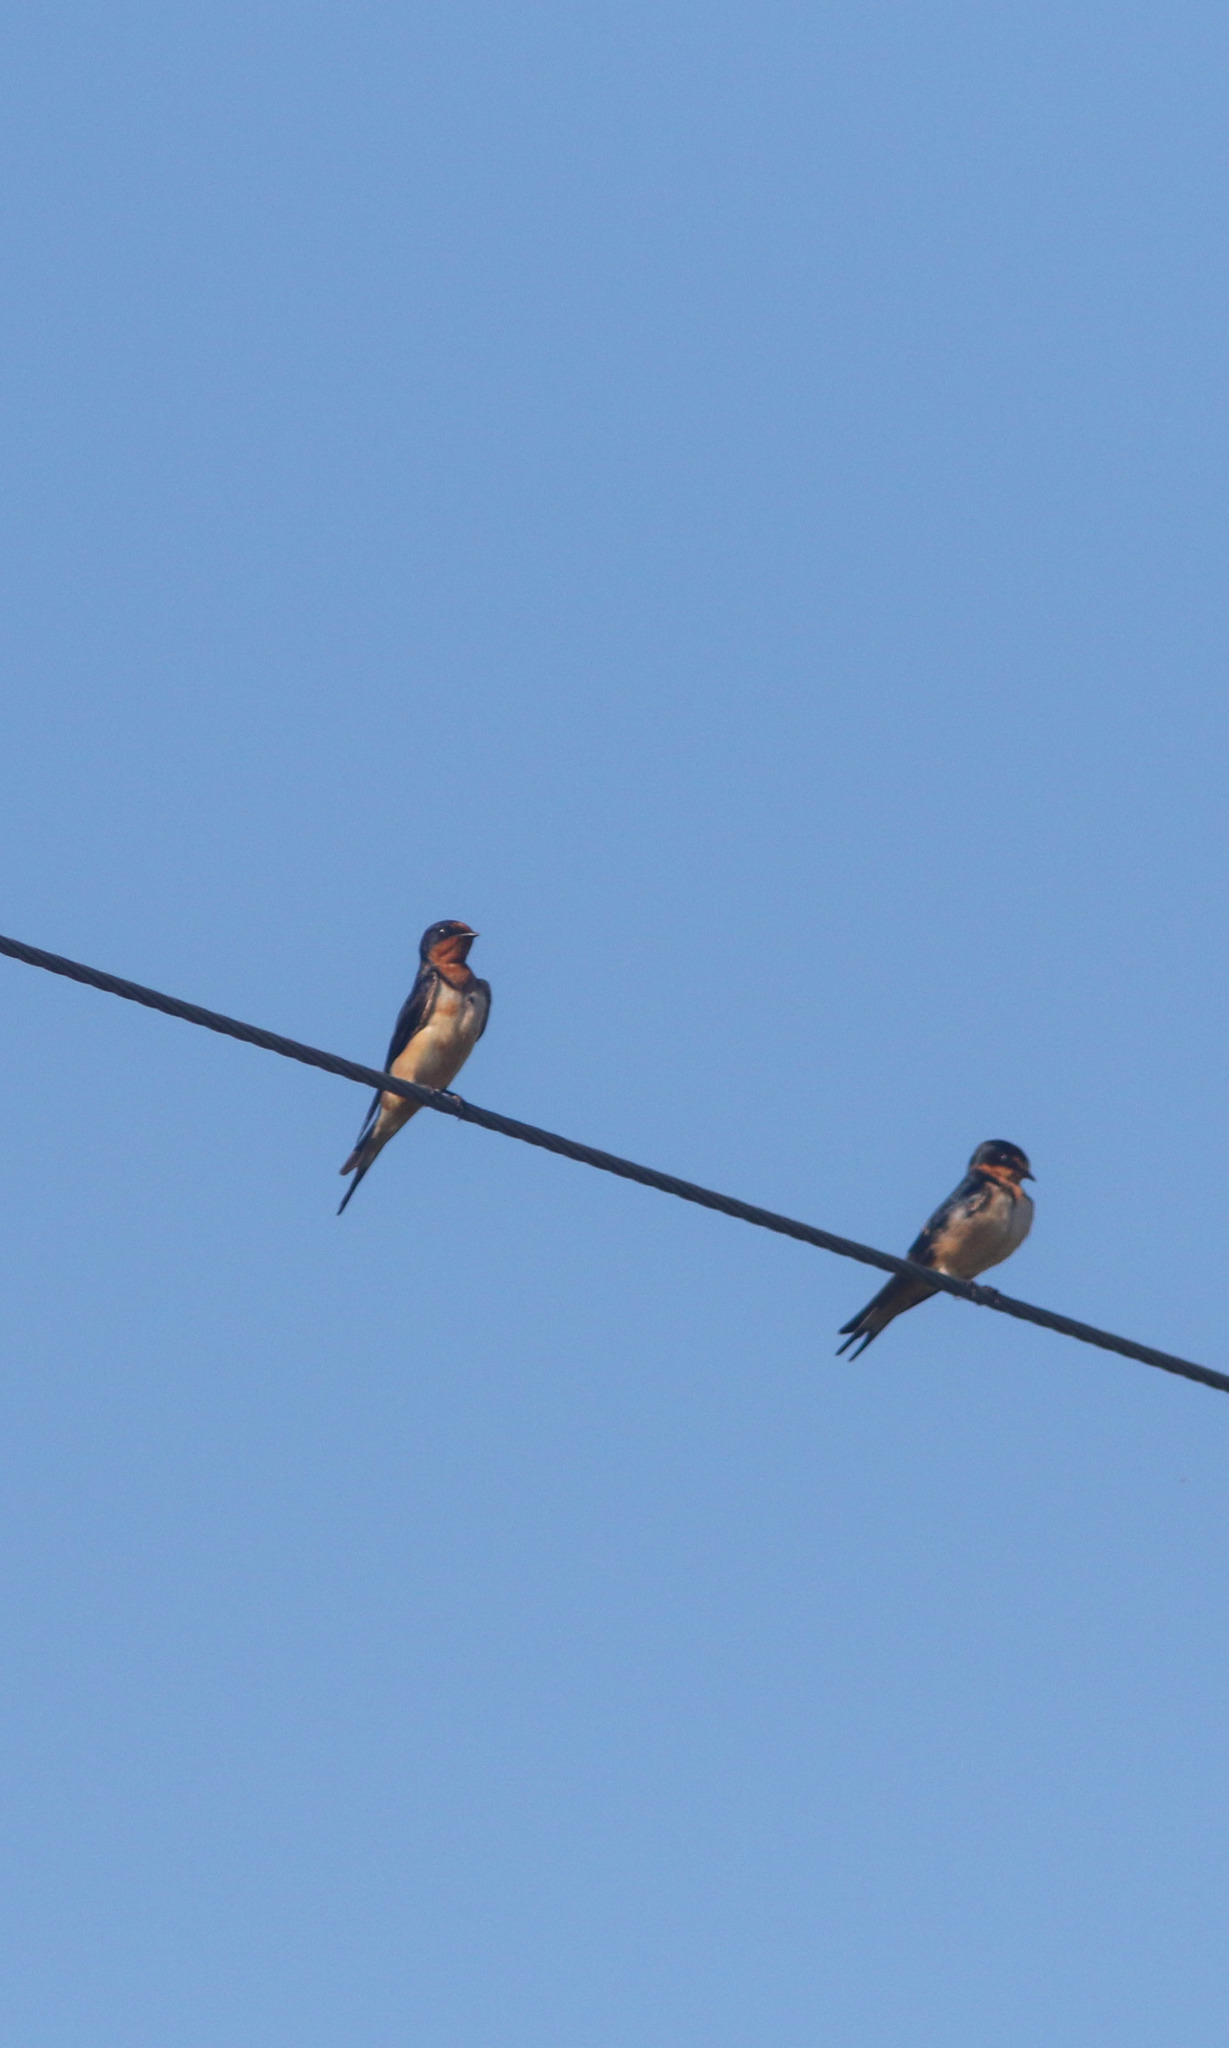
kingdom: Animalia
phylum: Chordata
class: Aves
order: Passeriformes
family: Hirundinidae
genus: Hirundo
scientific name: Hirundo rustica
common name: Barn swallow
